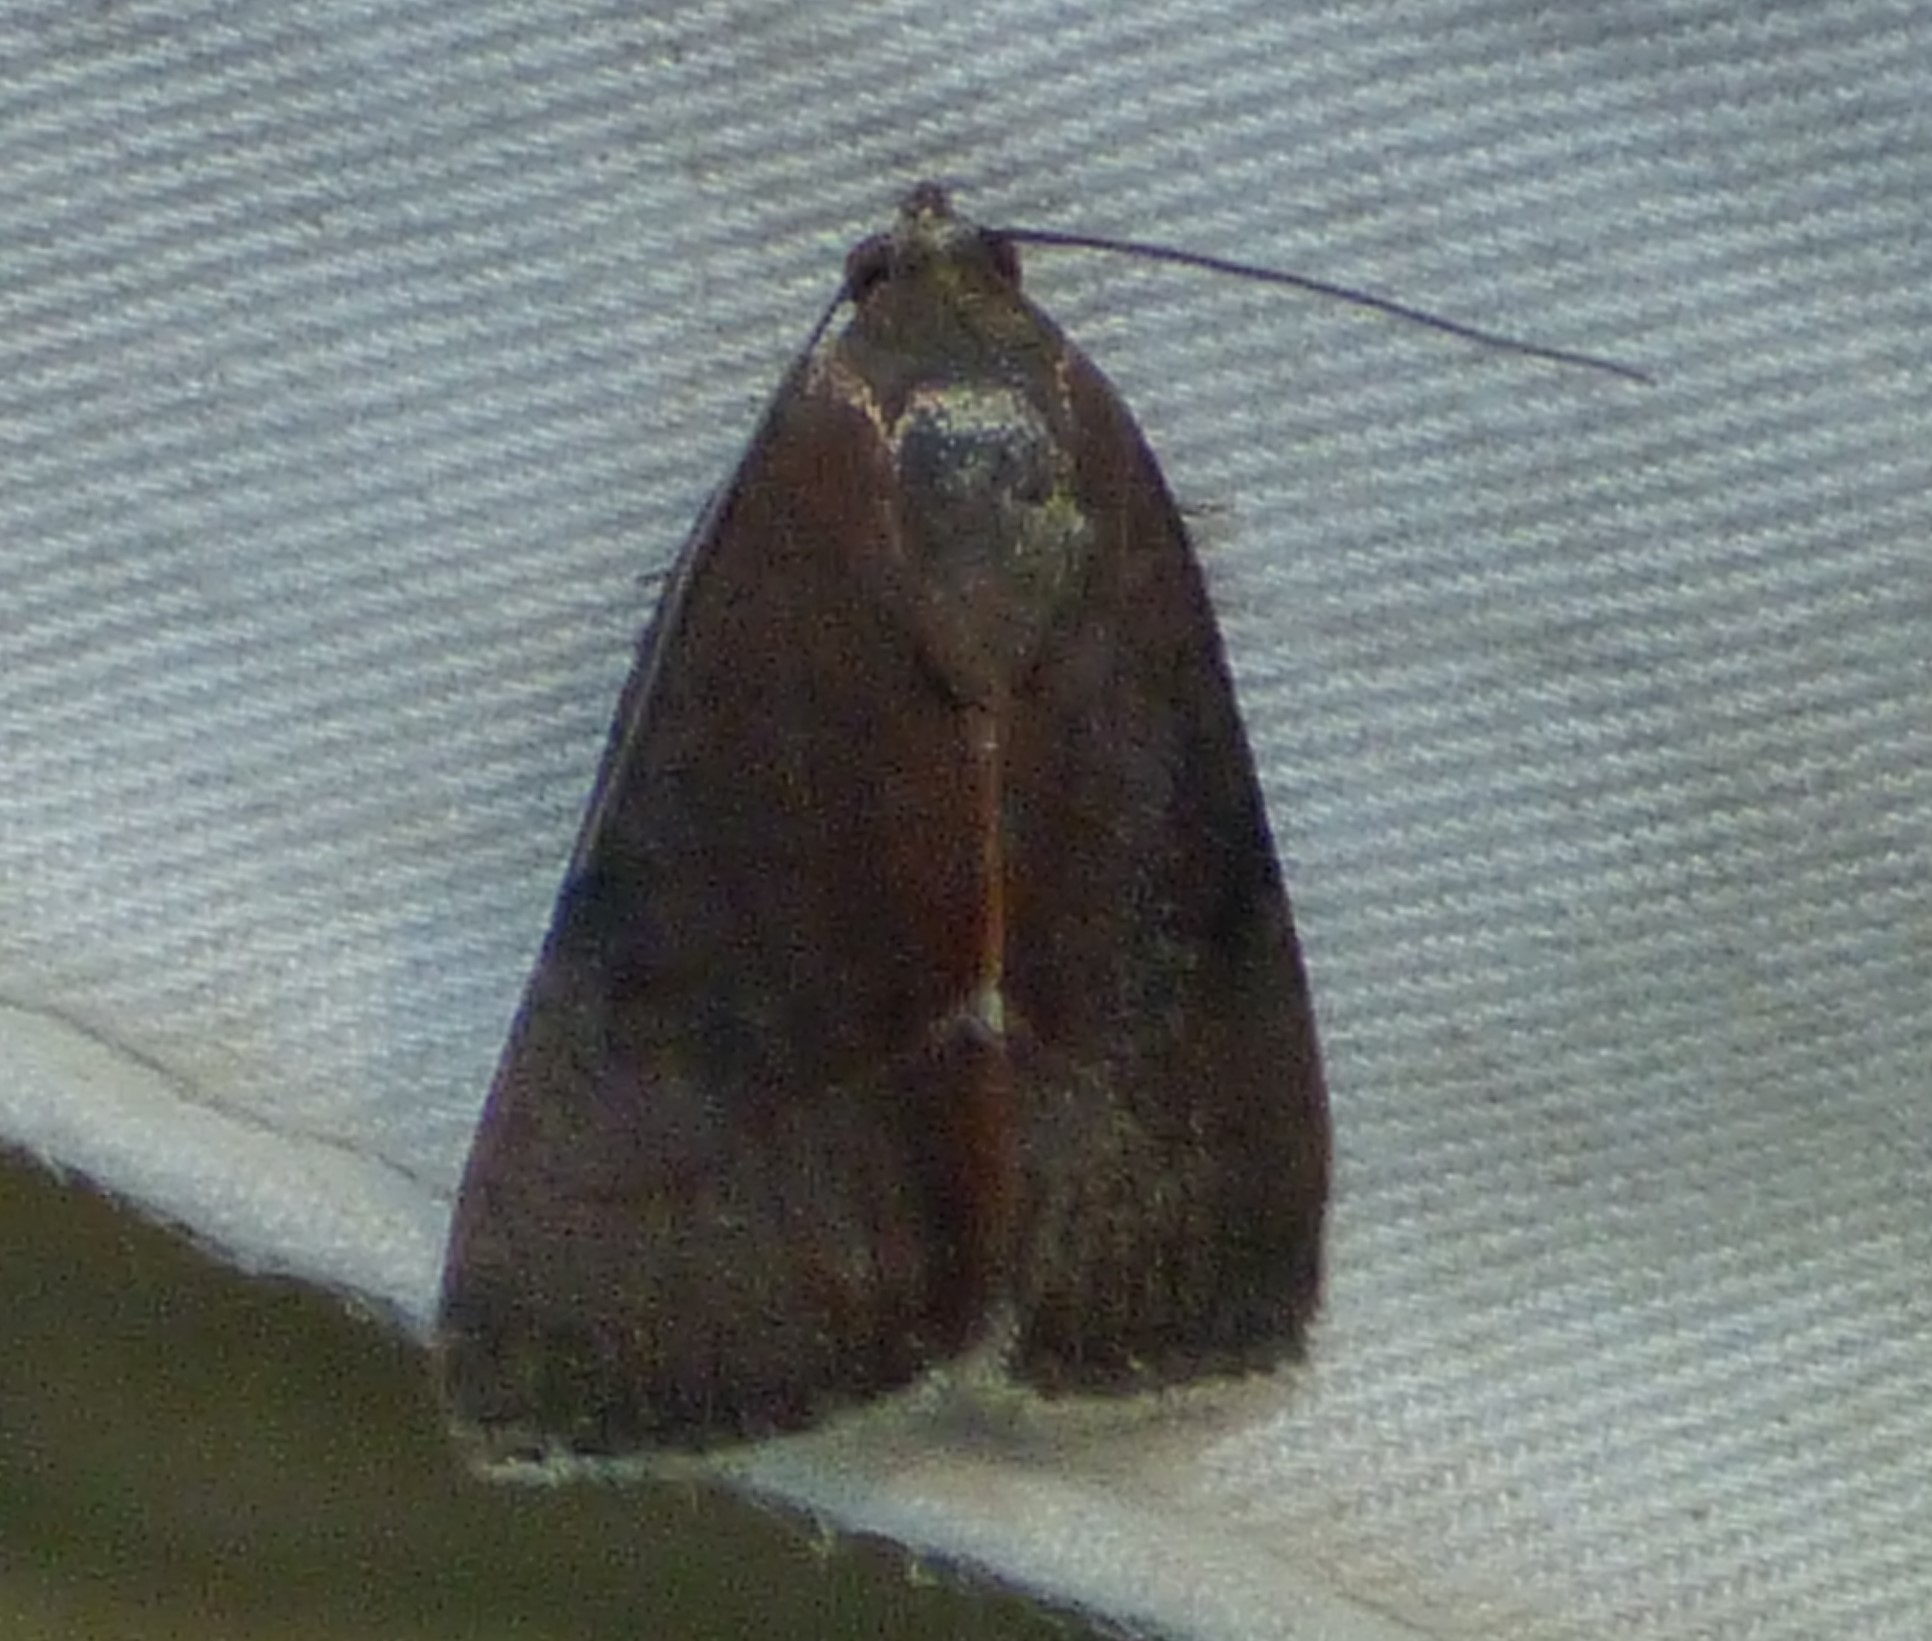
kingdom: Animalia
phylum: Arthropoda
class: Insecta
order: Lepidoptera
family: Noctuidae
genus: Galgula
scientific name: Galgula partita
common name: Wedgeling
